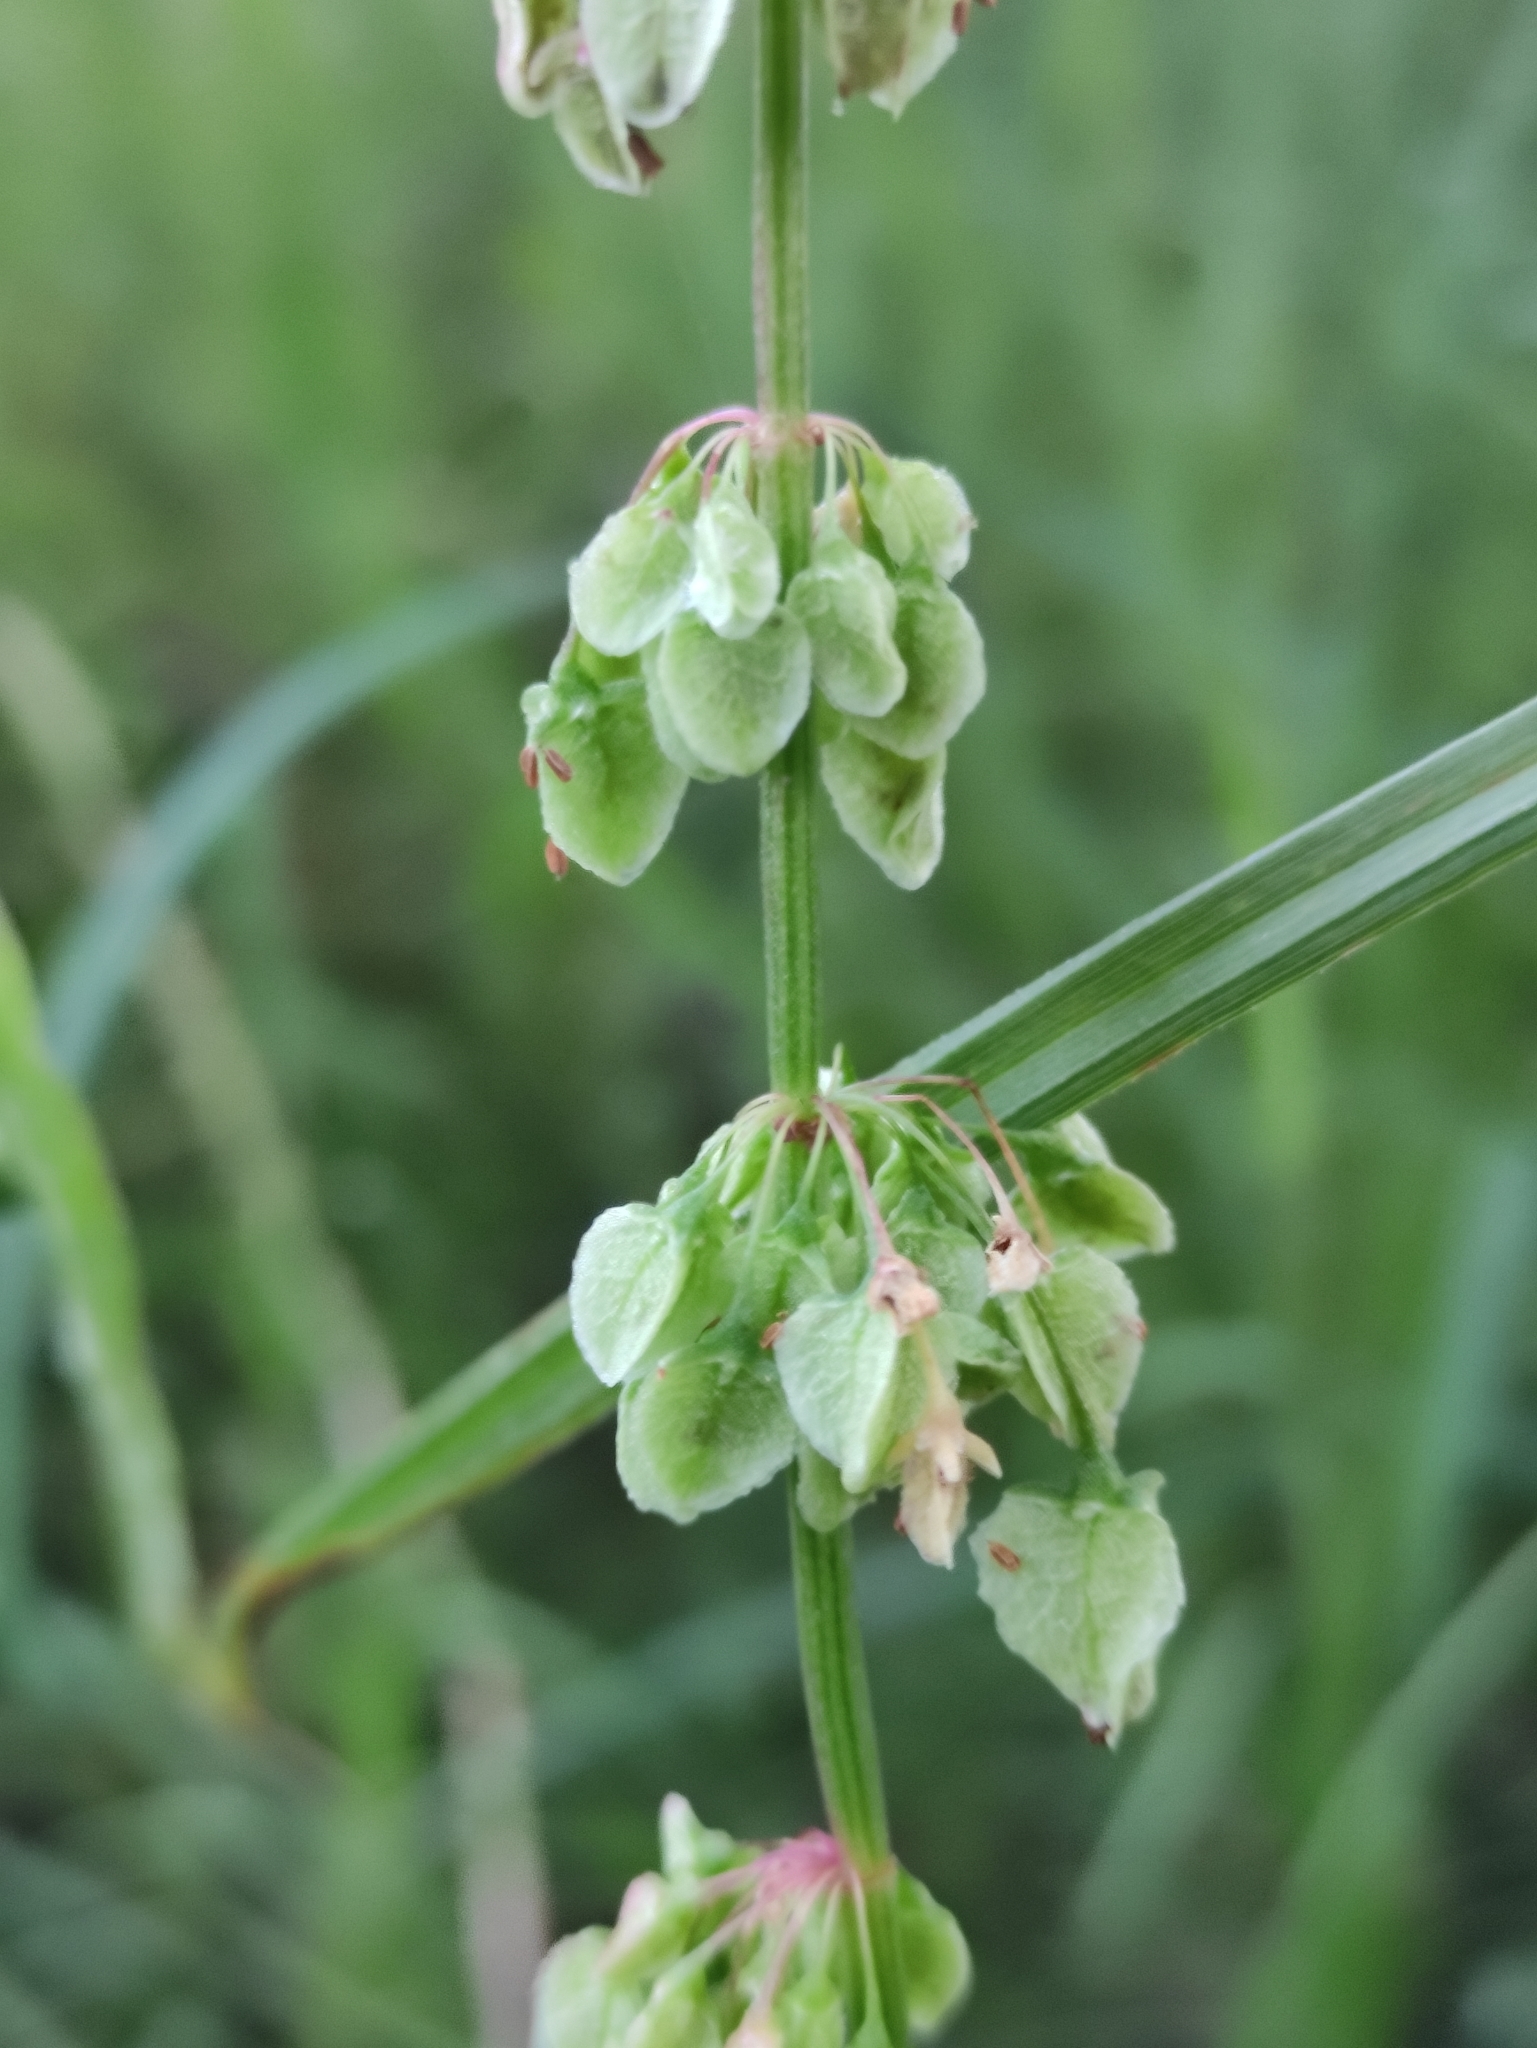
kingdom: Plantae
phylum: Tracheophyta
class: Magnoliopsida
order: Caryophyllales
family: Polygonaceae
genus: Rumex
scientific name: Rumex aquaticus
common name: Scottish dock
